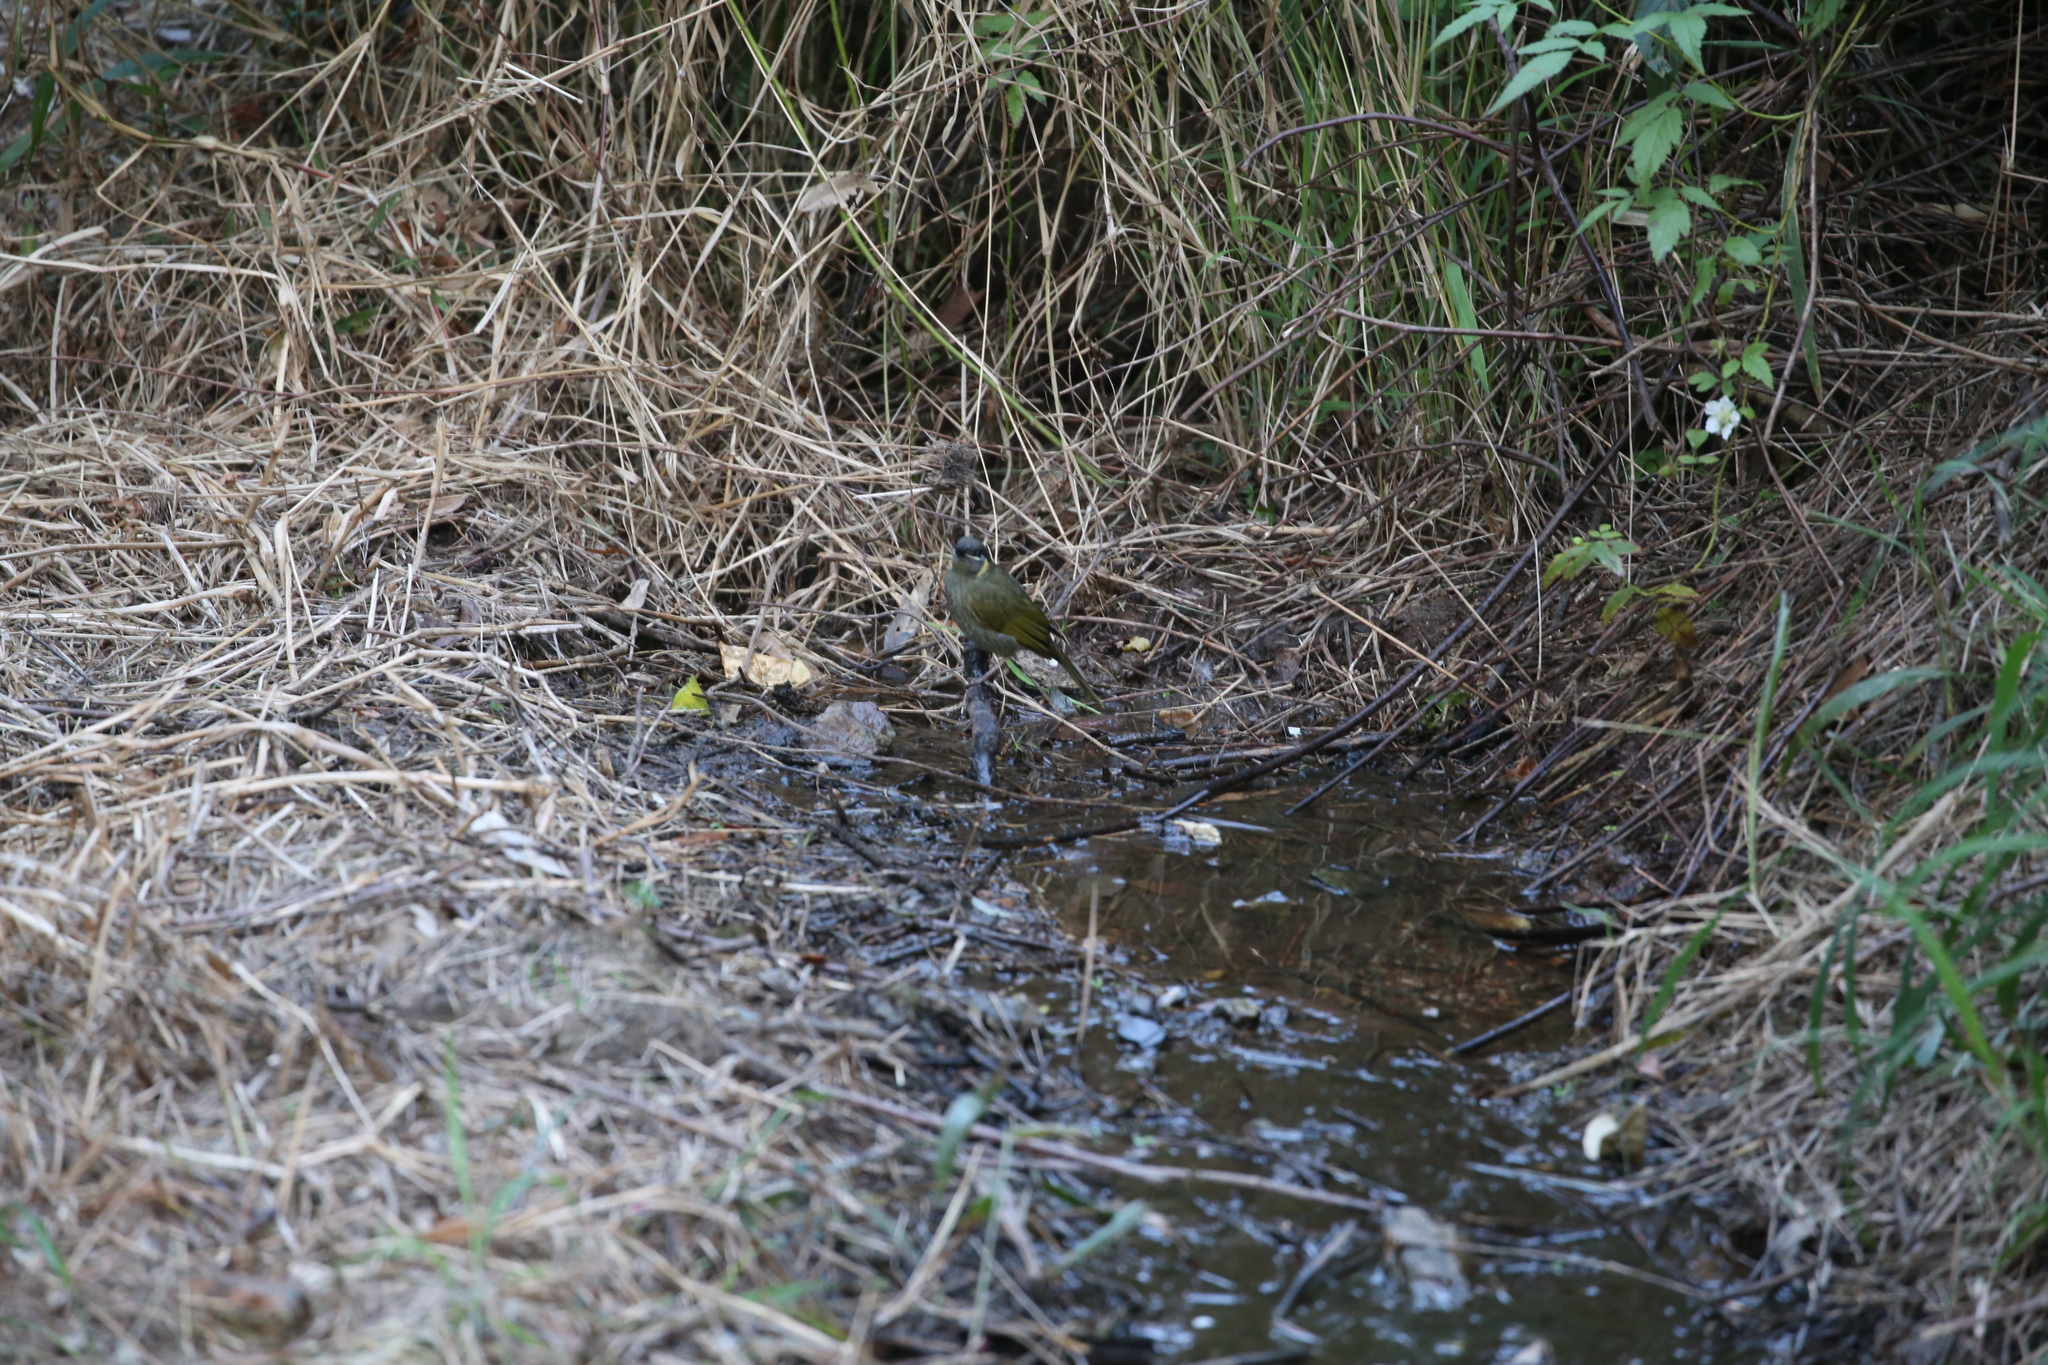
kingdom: Animalia
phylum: Chordata
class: Aves
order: Passeriformes
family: Meliphagidae
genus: Meliphaga
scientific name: Meliphaga lewinii
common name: Lewin's honeyeater
